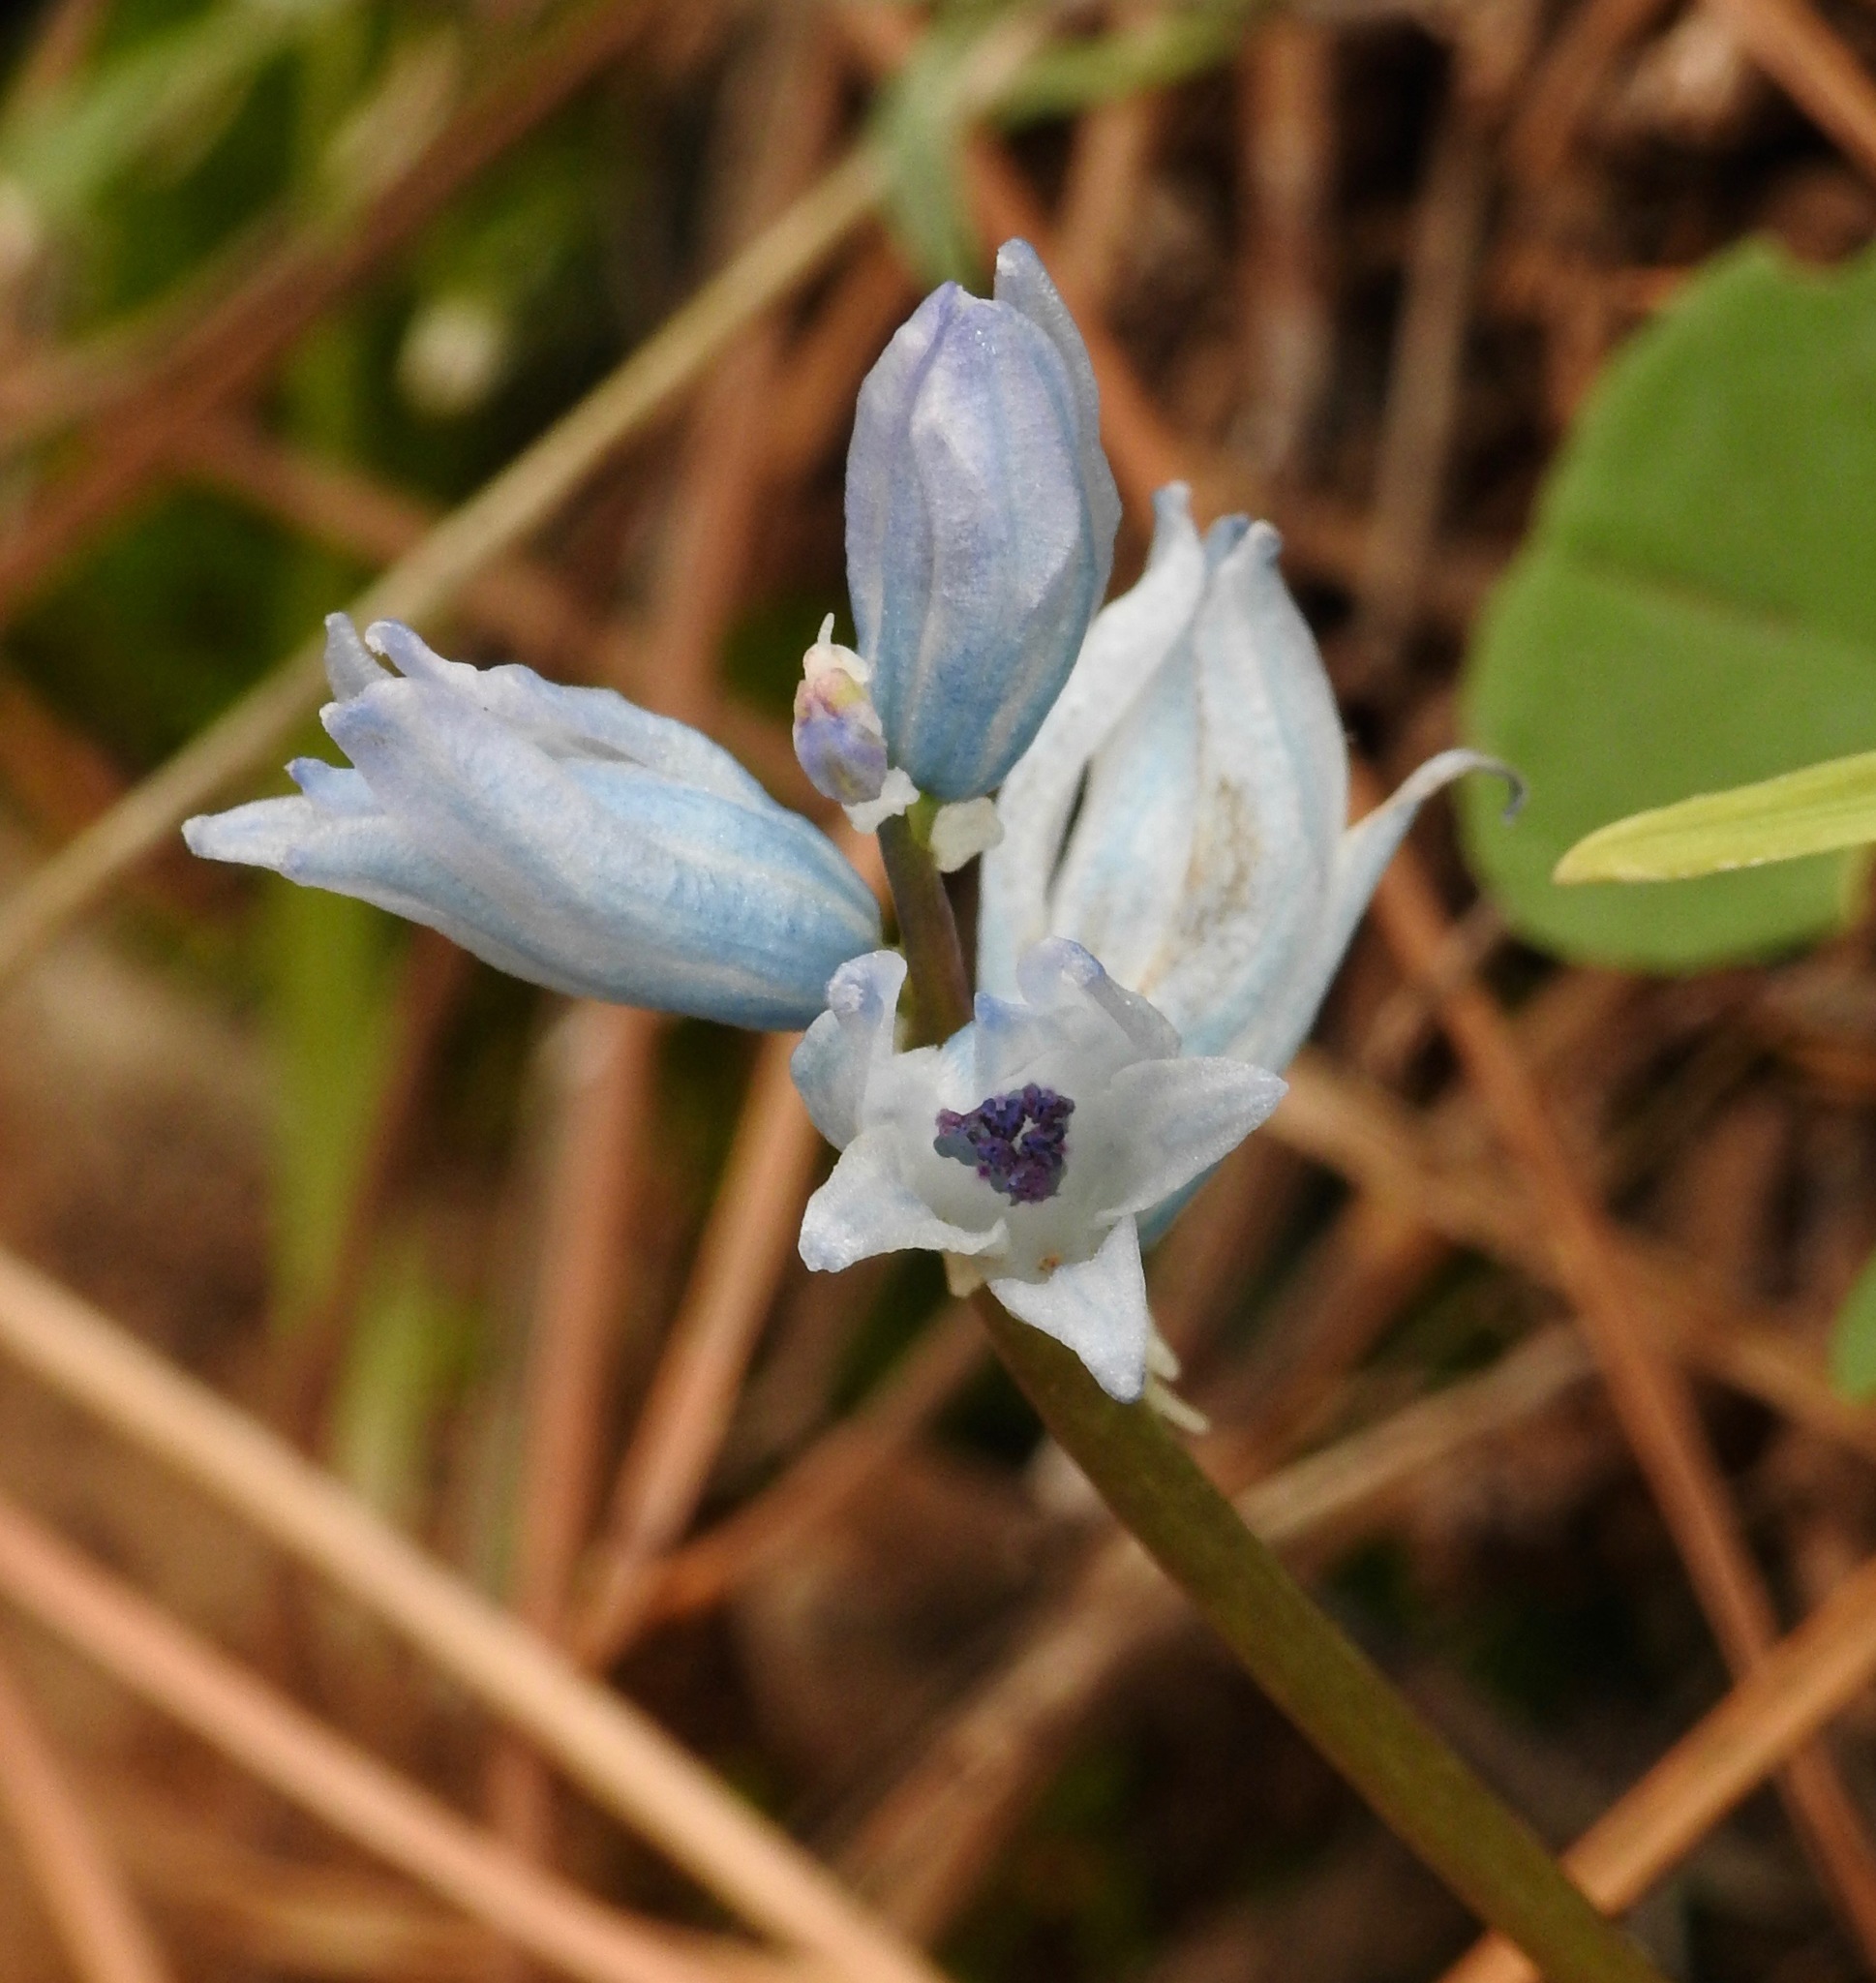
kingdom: Plantae
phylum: Tracheophyta
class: Liliopsida
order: Asparagales
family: Asparagaceae
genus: Bellevalia
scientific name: Bellevalia hyacinthoides
